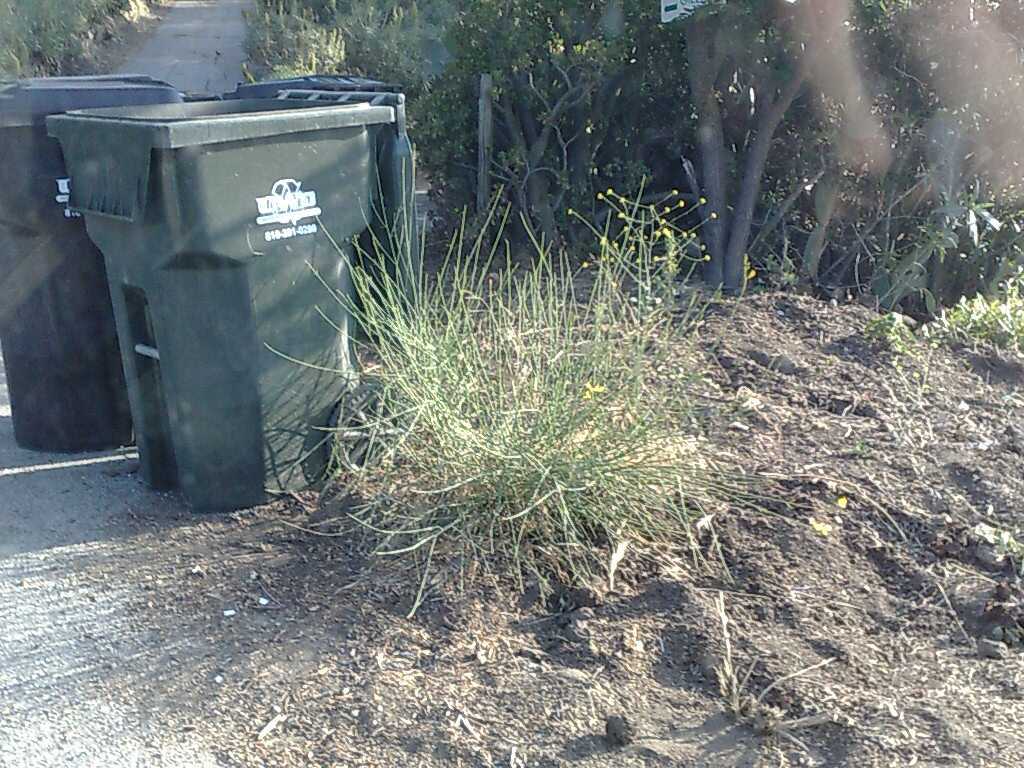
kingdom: Plantae
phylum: Tracheophyta
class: Magnoliopsida
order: Fabales
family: Fabaceae
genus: Spartium
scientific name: Spartium junceum
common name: Spanish broom
